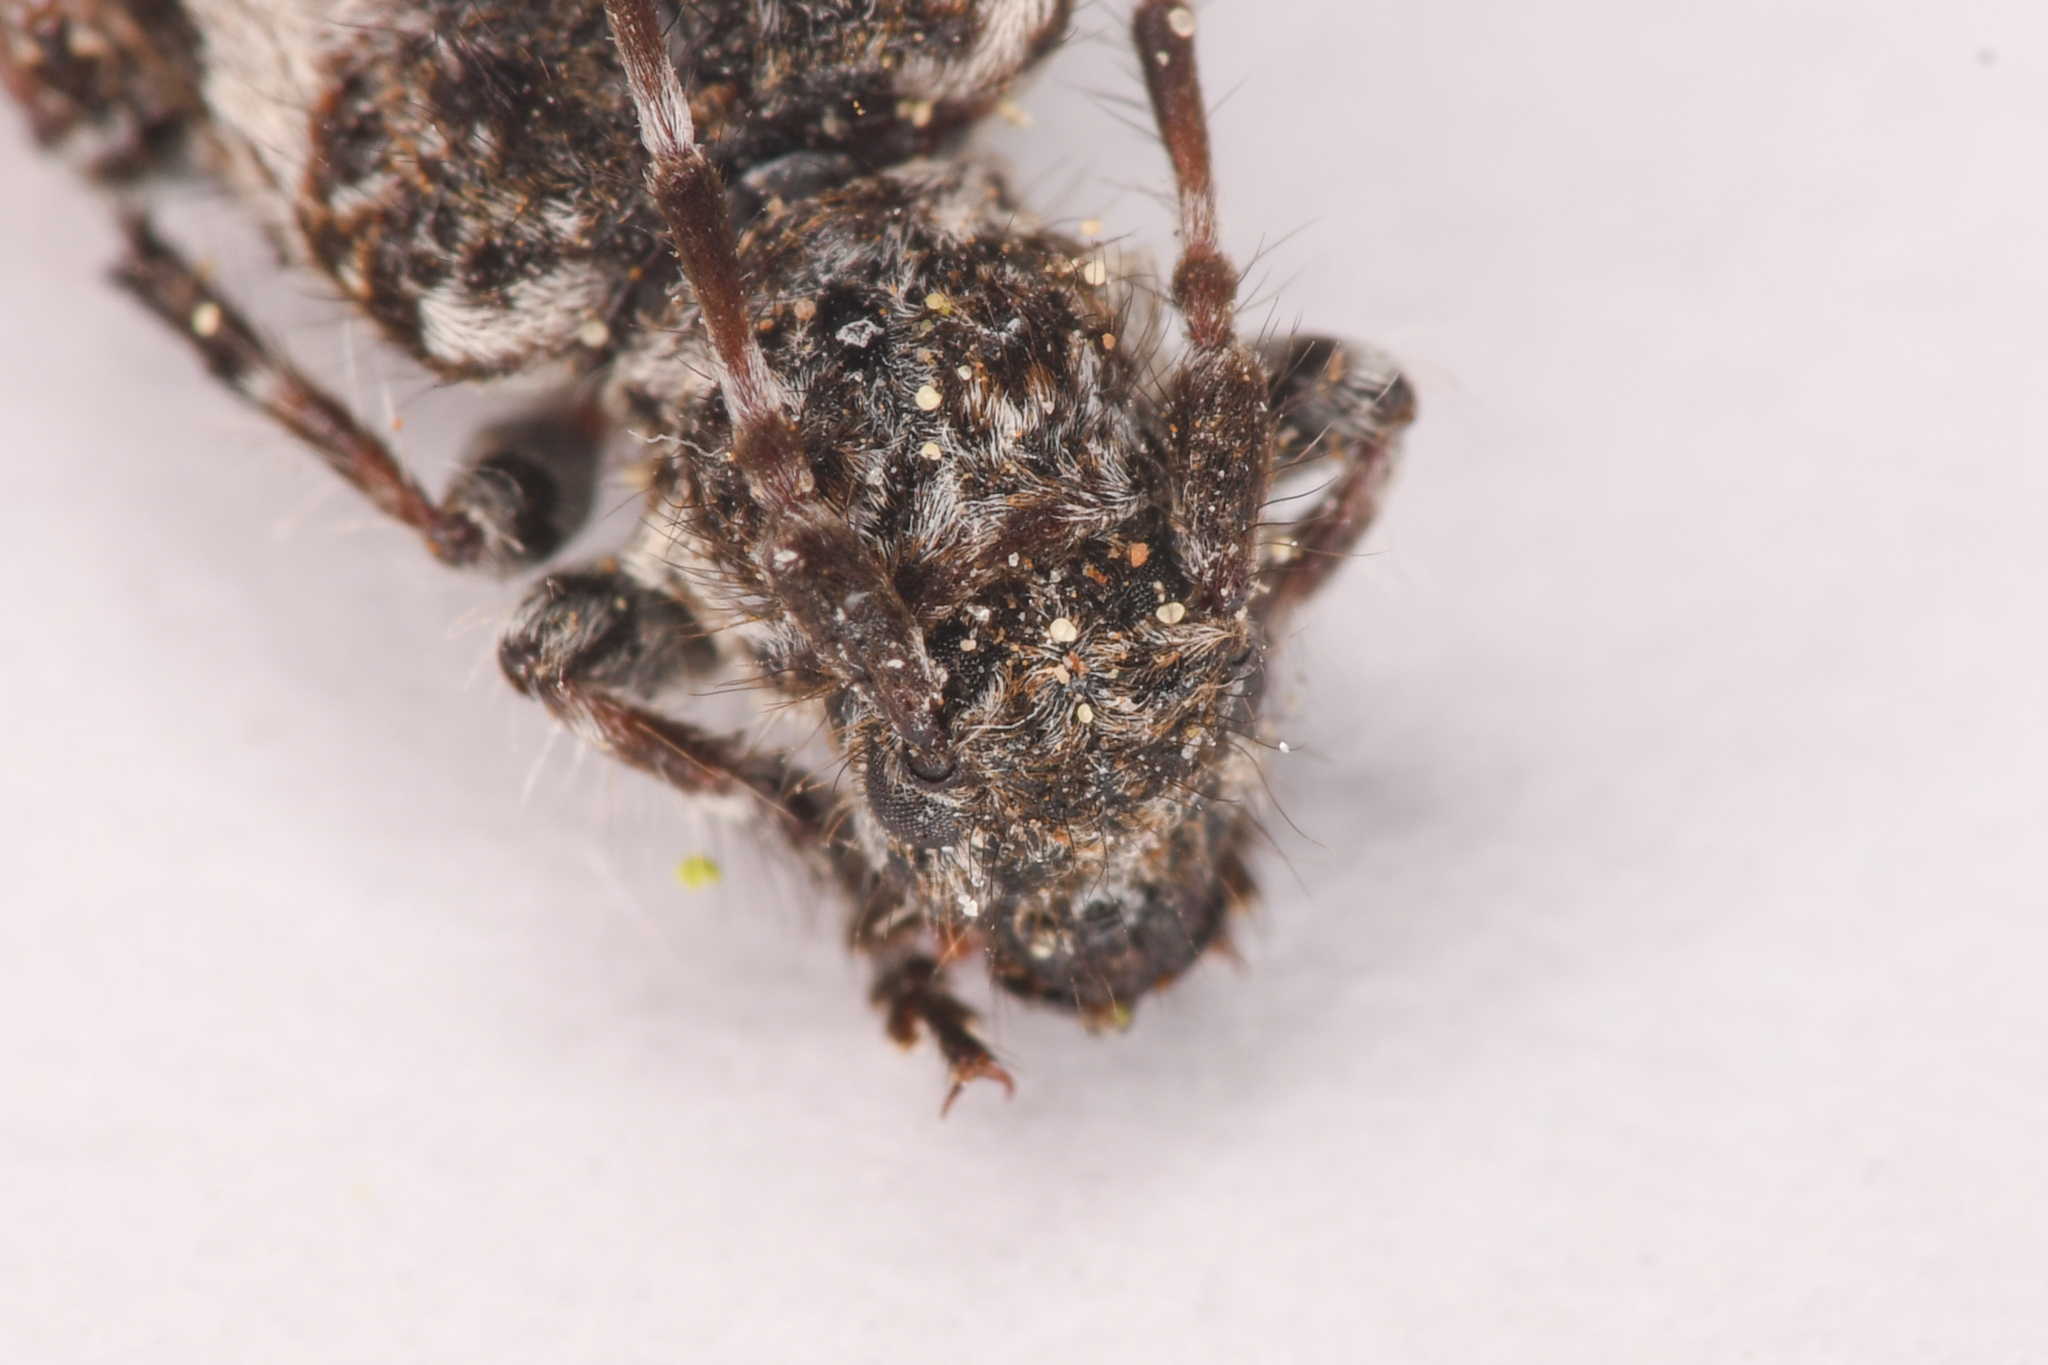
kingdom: Animalia
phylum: Arthropoda
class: Insecta
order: Coleoptera
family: Cerambycidae
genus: Pogonocherus
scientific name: Pogonocherus penicillatus
